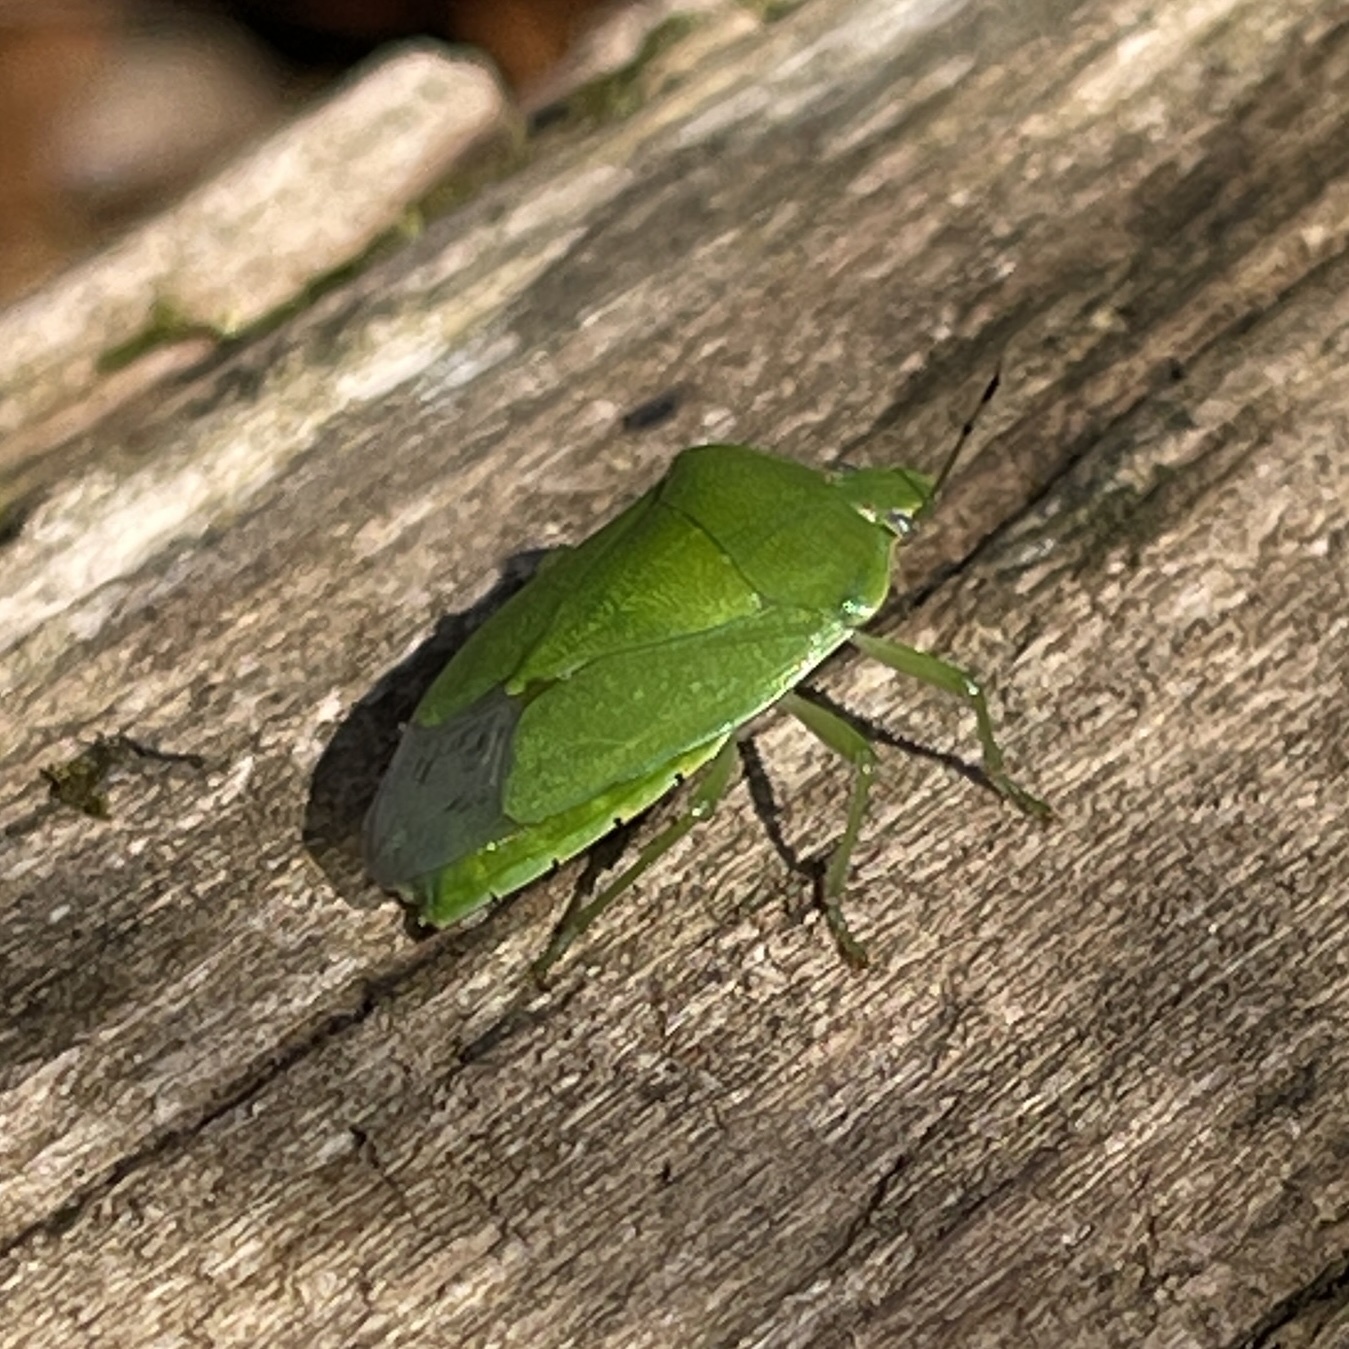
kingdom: Animalia
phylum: Arthropoda
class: Insecta
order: Hemiptera
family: Pentatomidae
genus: Chinavia
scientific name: Chinavia hilaris
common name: Green stink bug
